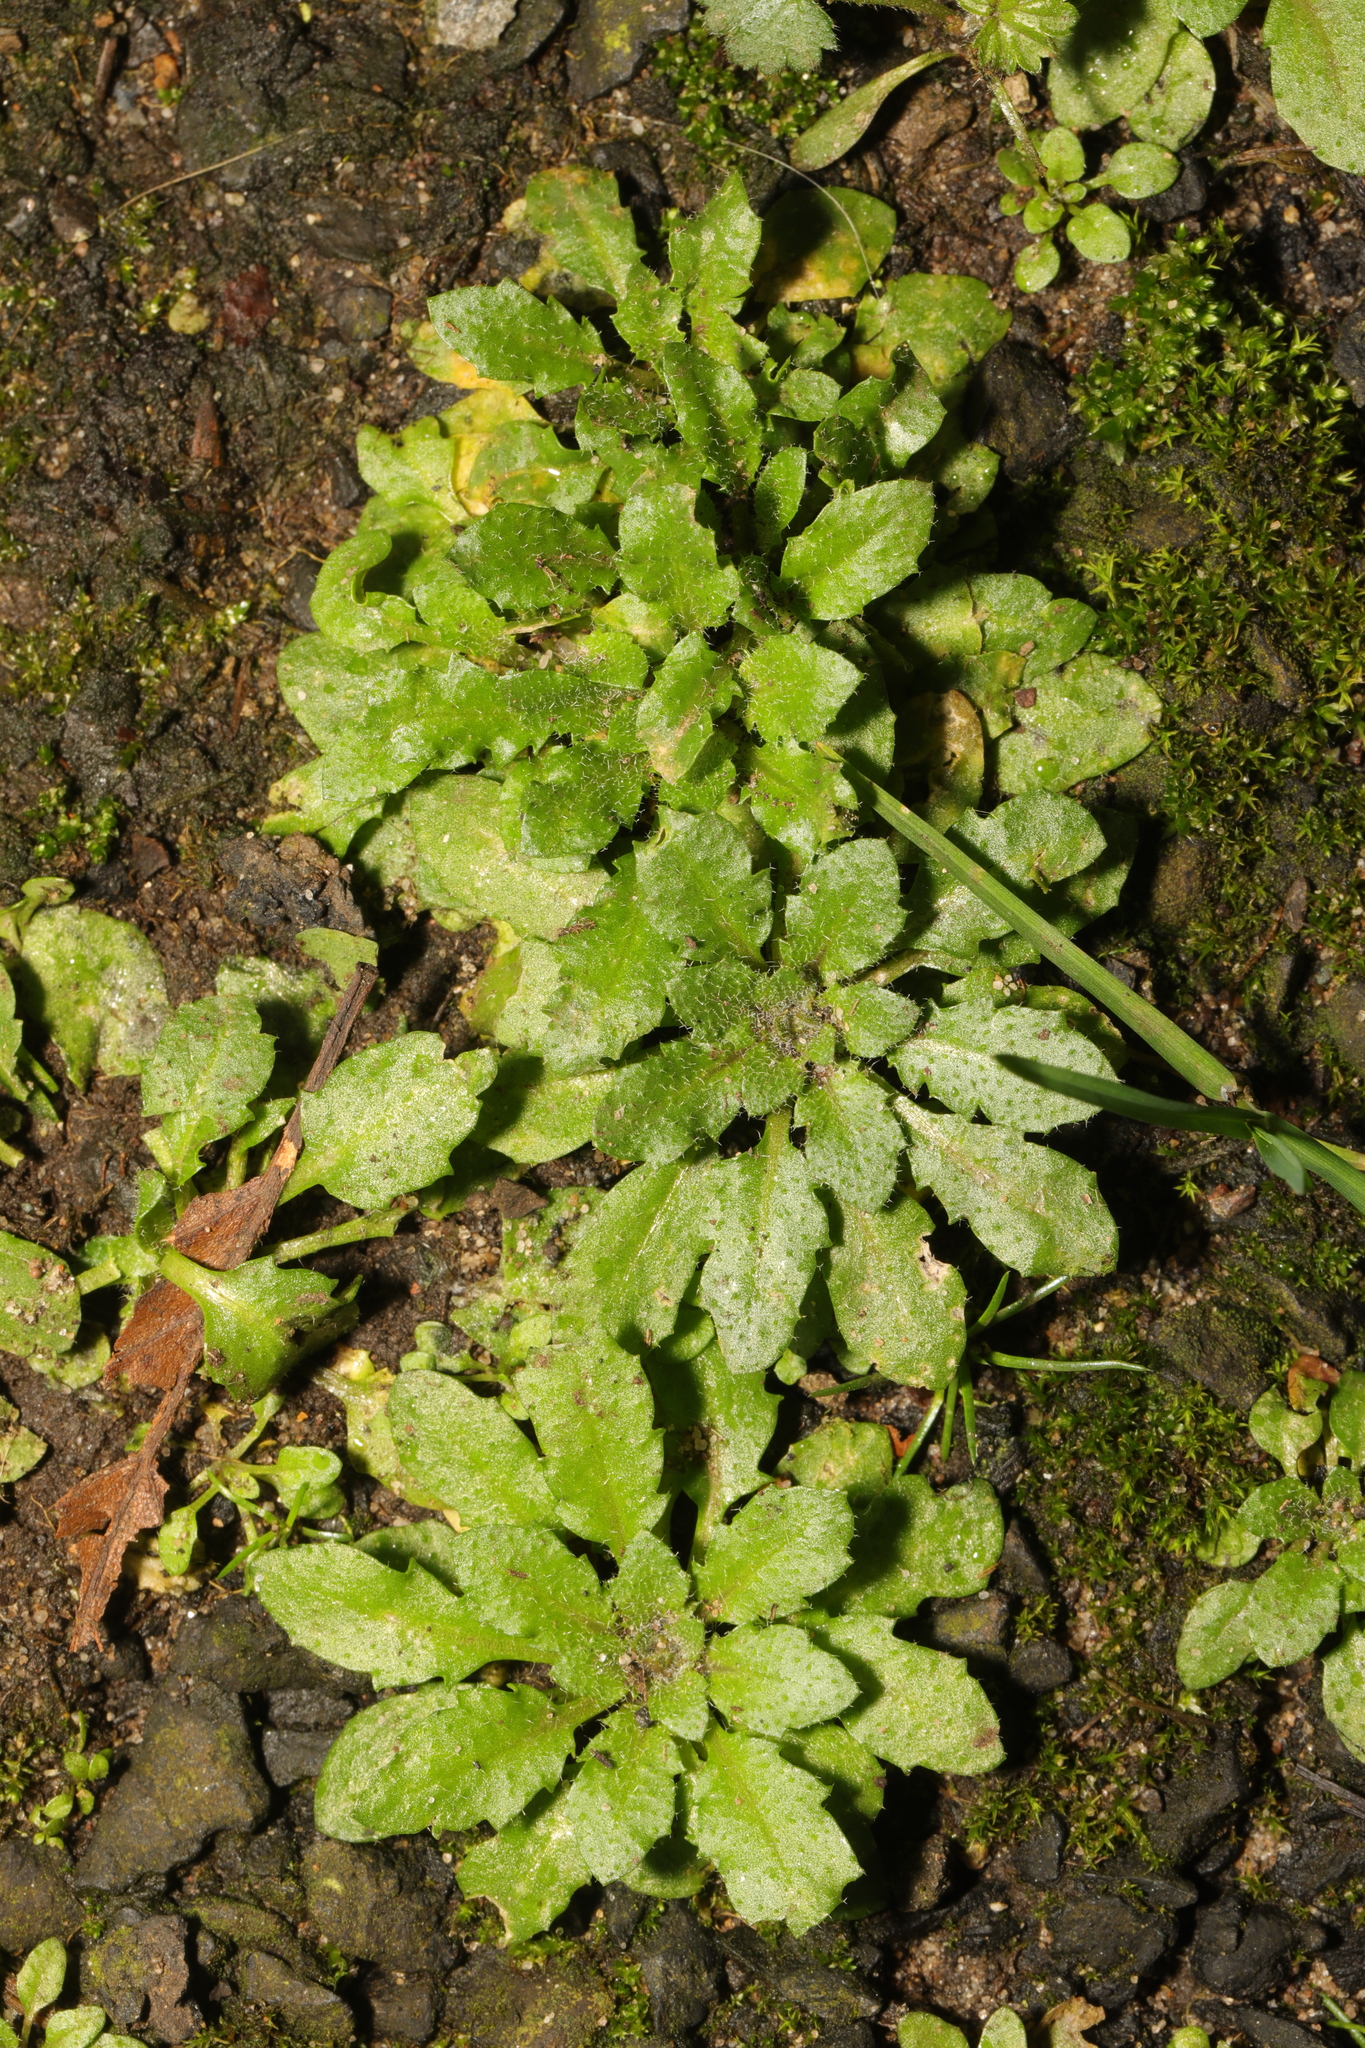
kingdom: Plantae
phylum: Tracheophyta
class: Magnoliopsida
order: Brassicales
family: Brassicaceae
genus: Arabidopsis
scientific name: Arabidopsis thaliana
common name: Thale cress
